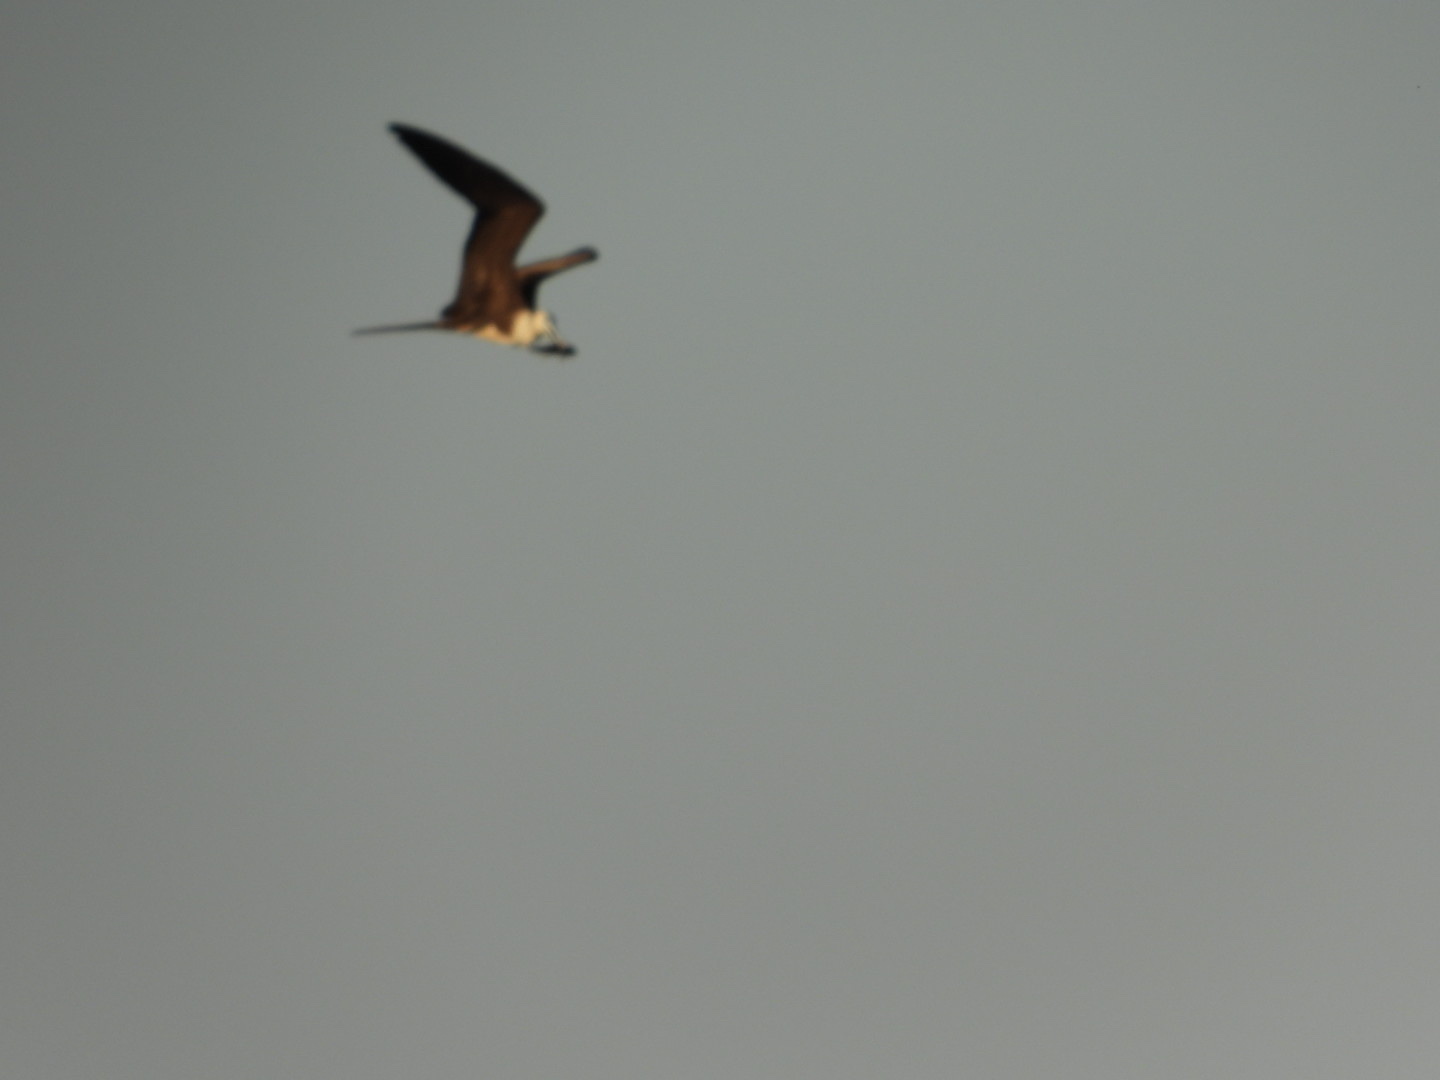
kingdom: Animalia
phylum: Chordata
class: Aves
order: Suliformes
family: Fregatidae
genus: Fregata
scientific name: Fregata magnificens
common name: Magnificent frigatebird
